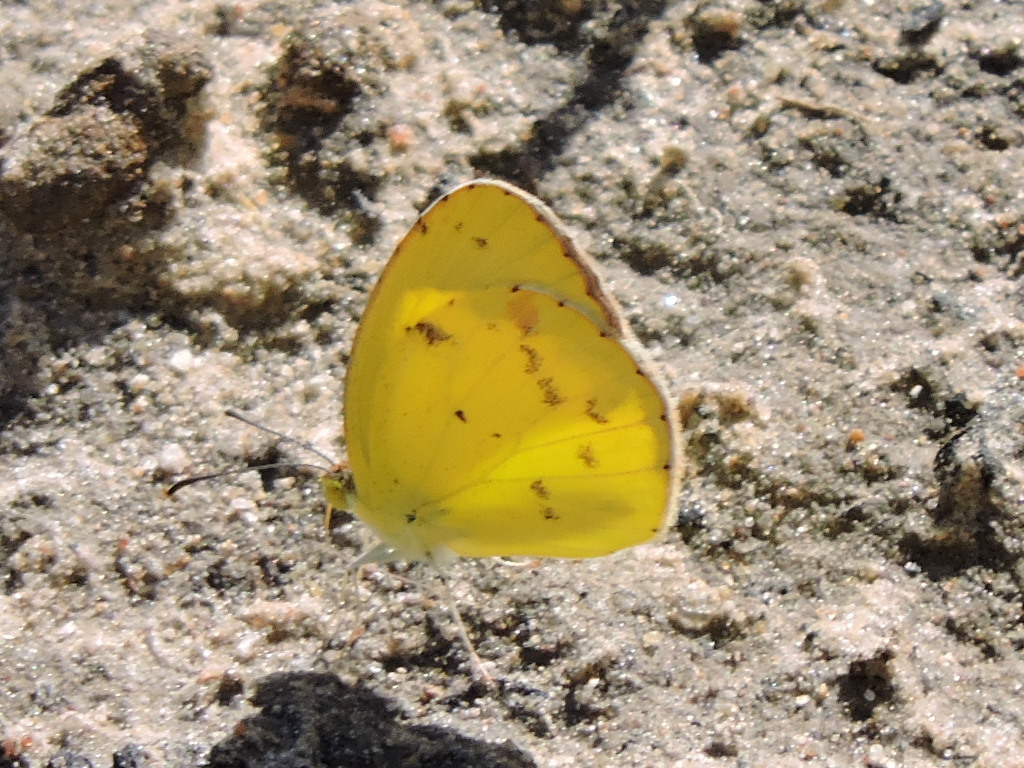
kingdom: Animalia
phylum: Arthropoda
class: Insecta
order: Lepidoptera
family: Pieridae
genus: Pyrisitia
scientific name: Pyrisitia lisa
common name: Little yellow
